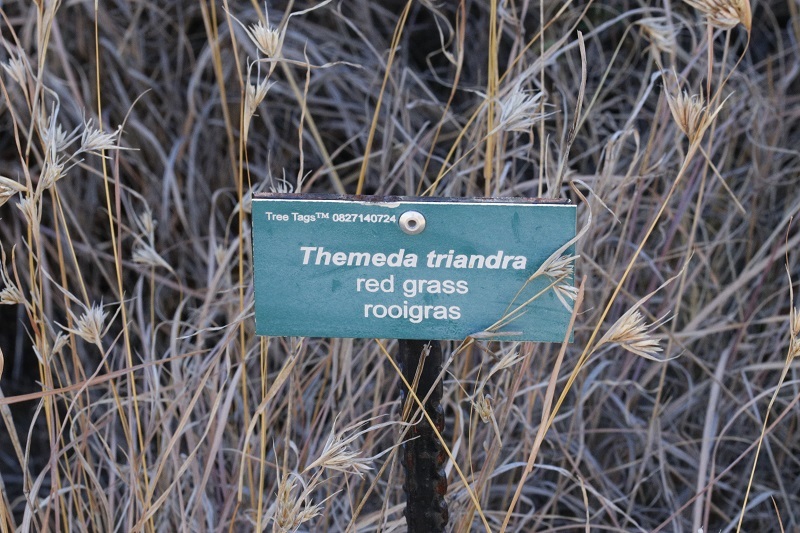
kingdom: Plantae
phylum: Tracheophyta
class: Liliopsida
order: Poales
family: Poaceae
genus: Themeda
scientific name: Themeda triandra
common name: Kangaroo grass
